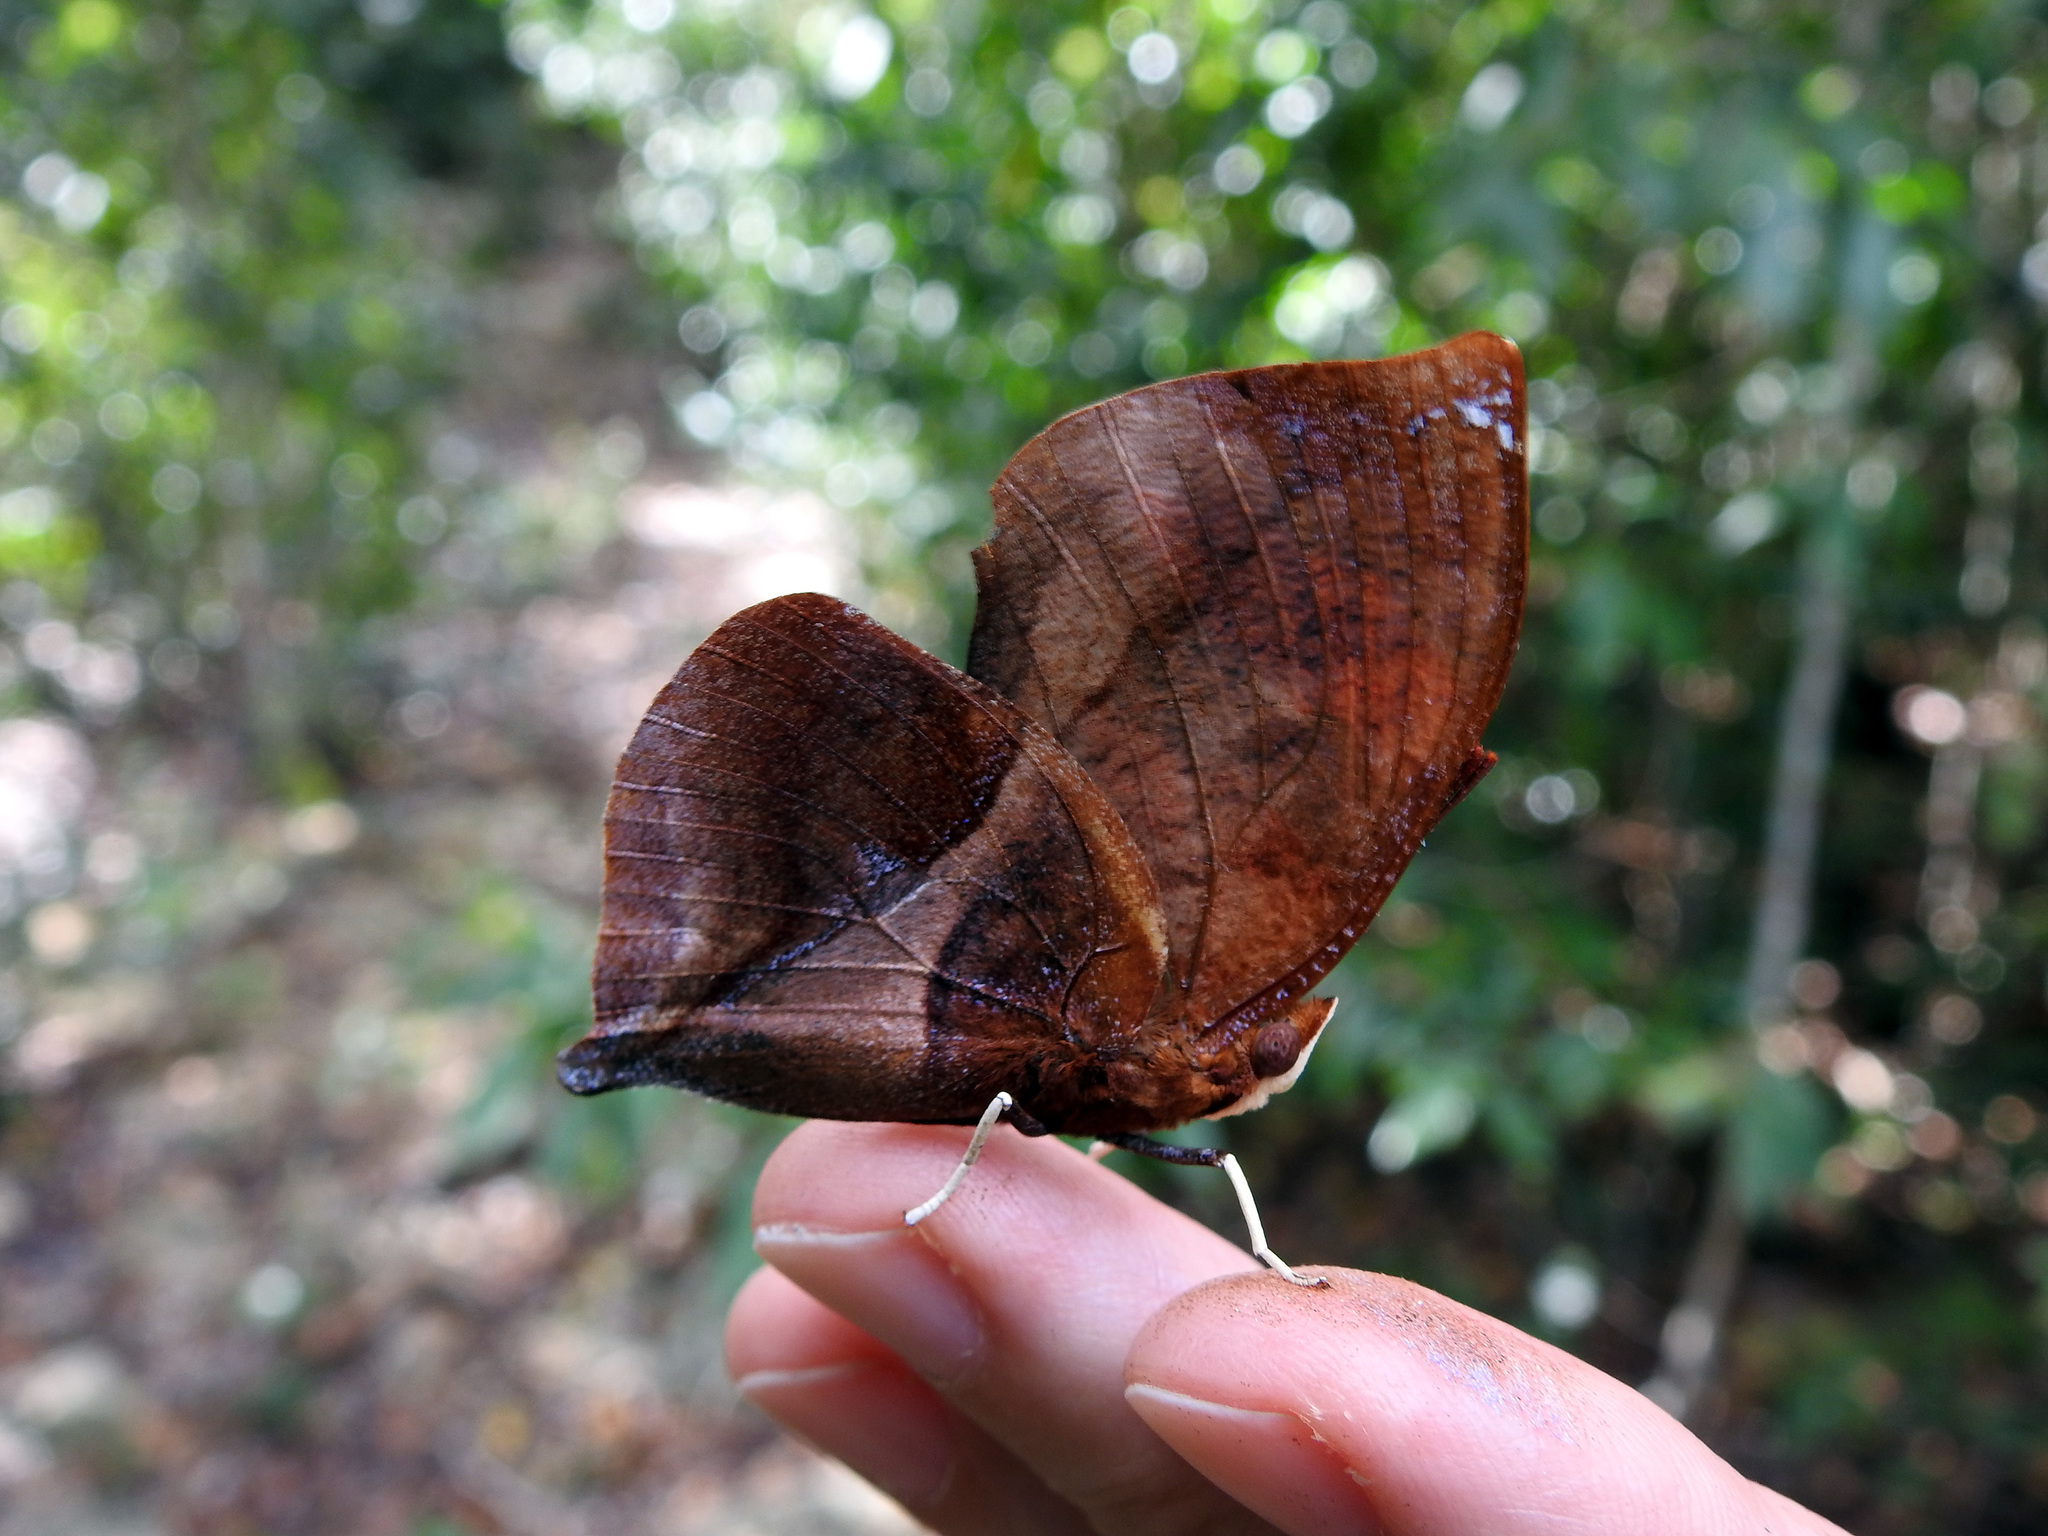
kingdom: Animalia
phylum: Arthropoda
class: Insecta
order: Lepidoptera
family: Nymphalidae
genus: Siderone
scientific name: Siderone galanthis
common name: Red-striped leafwing
